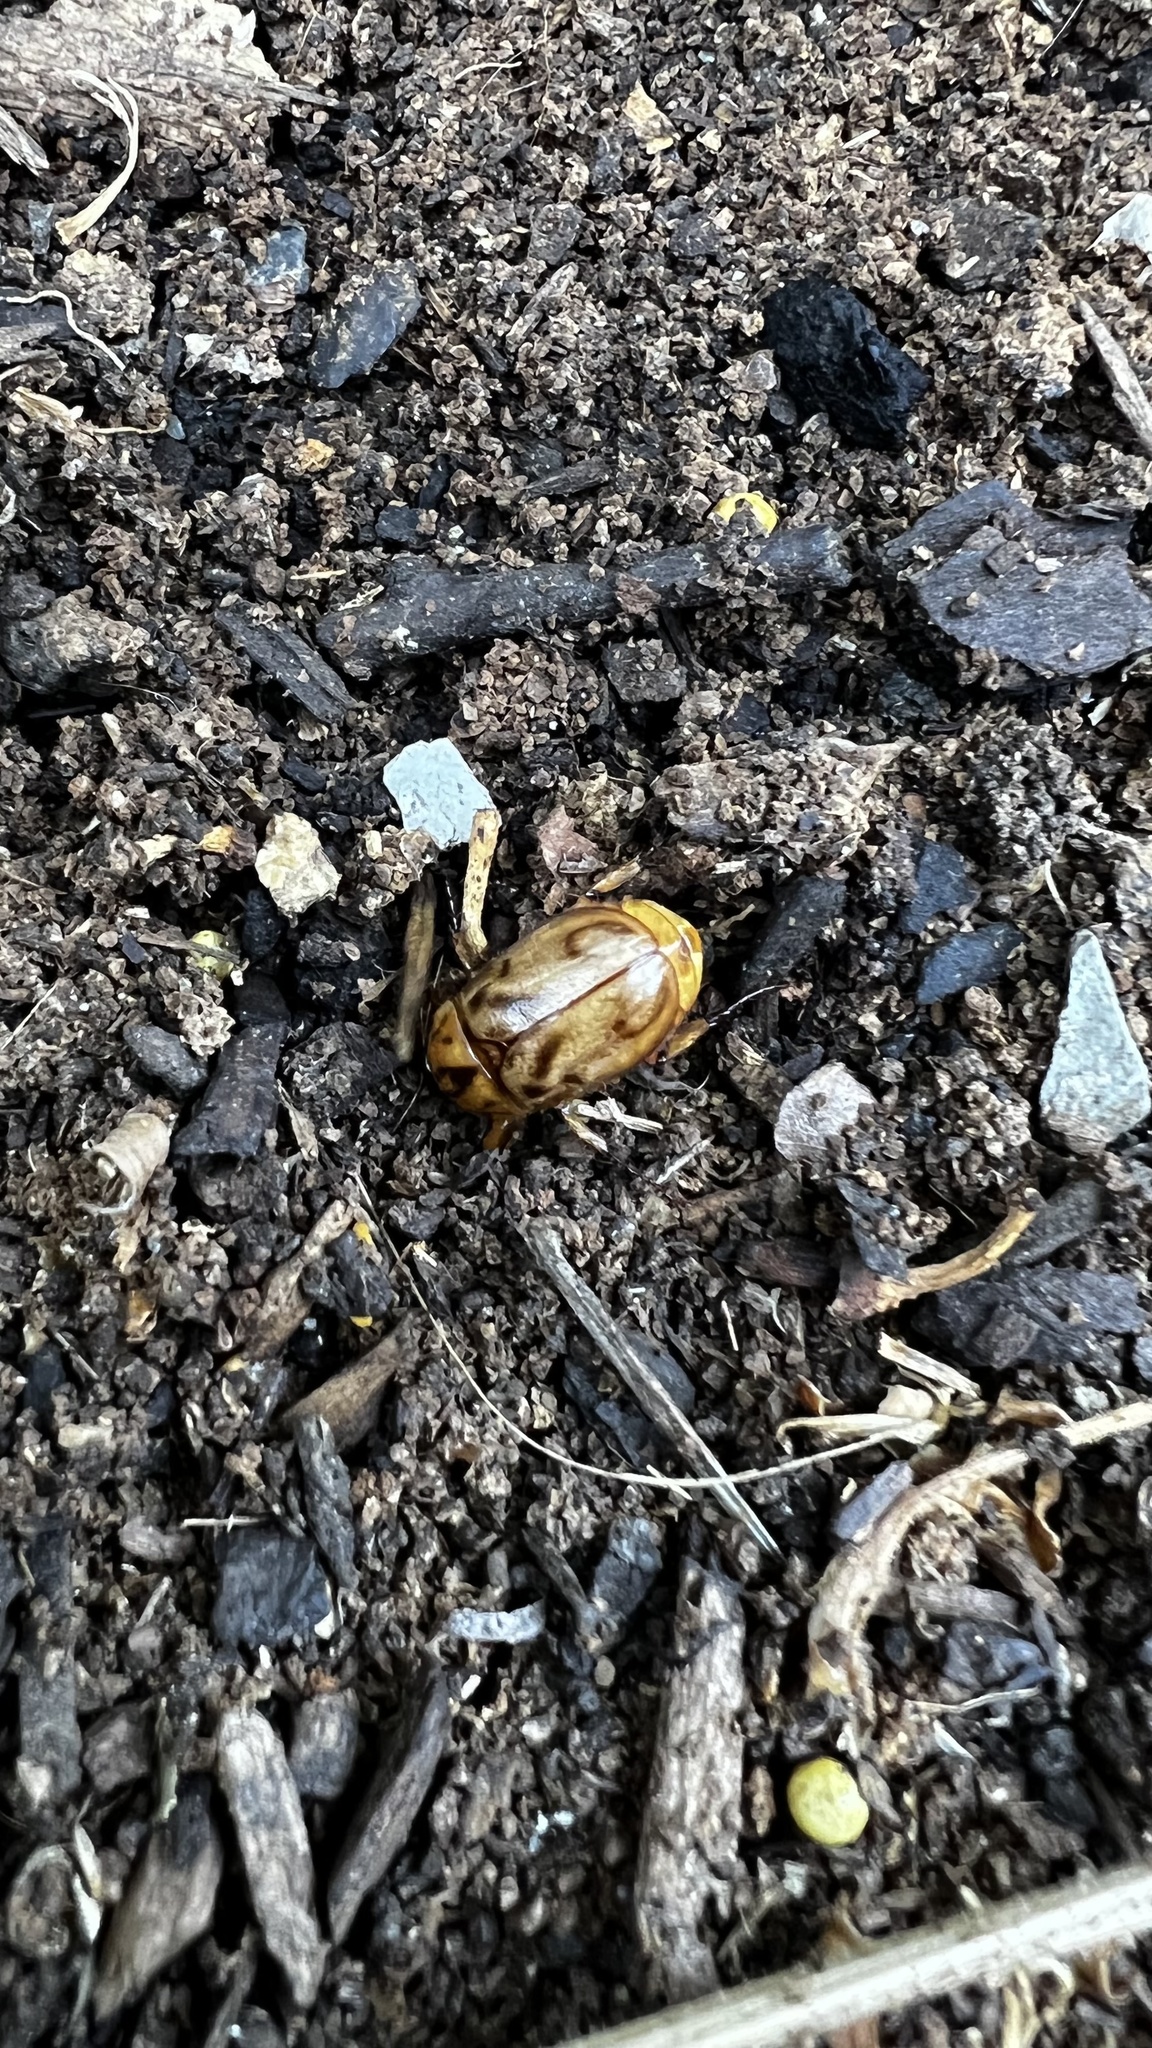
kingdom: Animalia
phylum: Arthropoda
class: Insecta
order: Coleoptera
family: Scarabaeidae
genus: Cyclocephala
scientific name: Cyclocephala signaticollis
